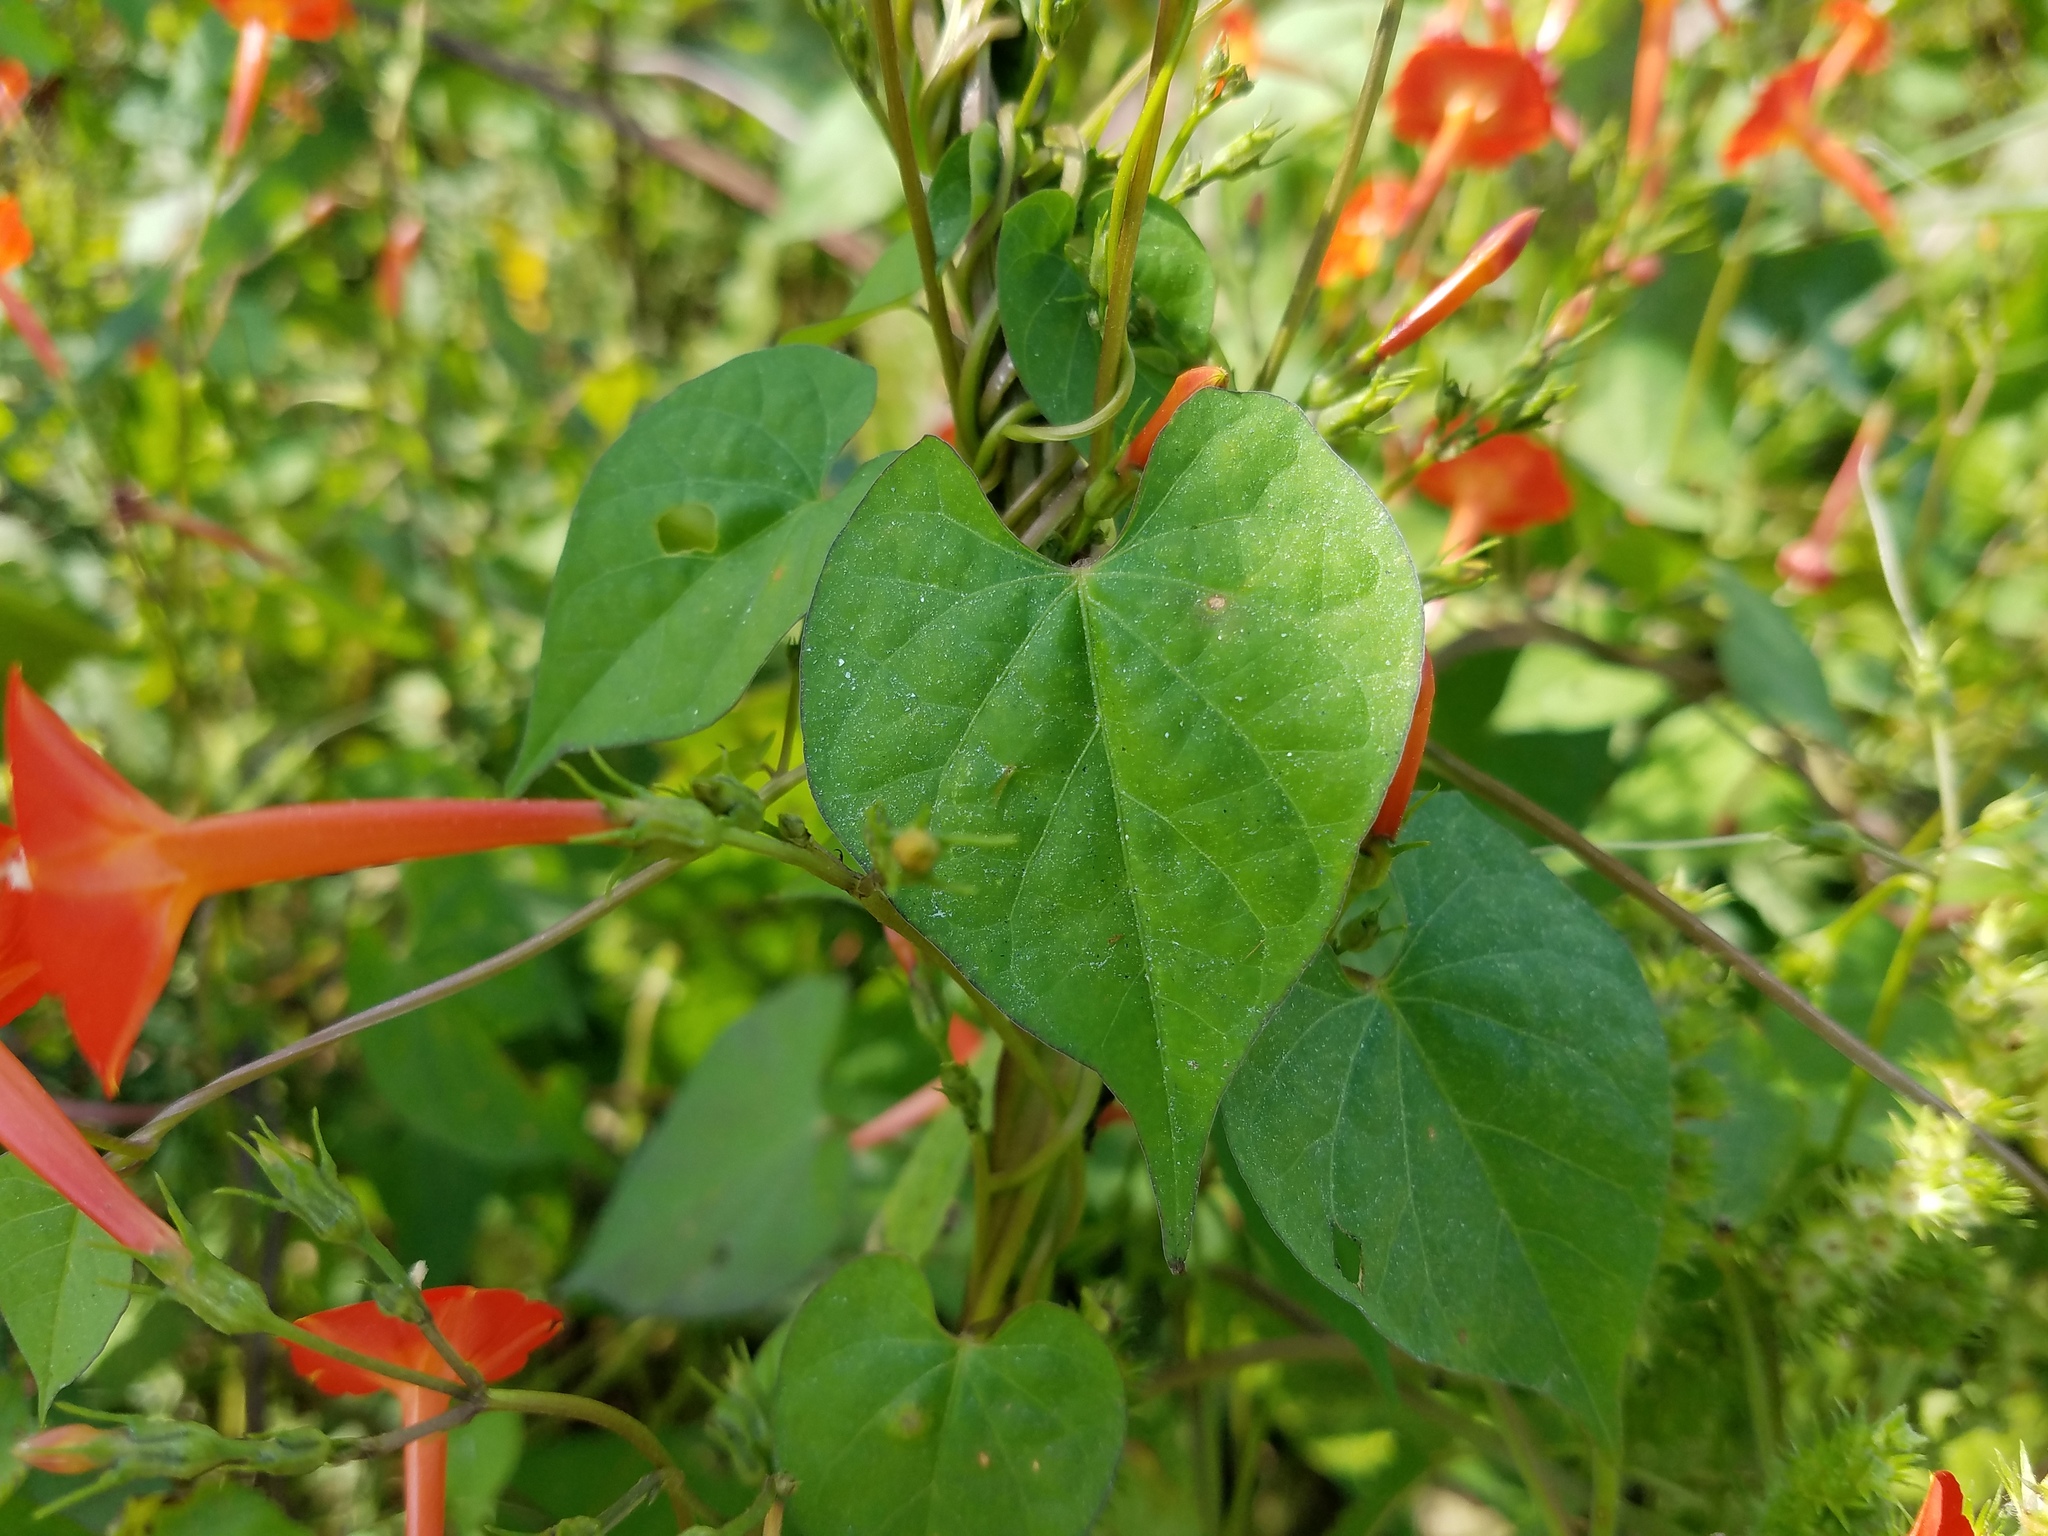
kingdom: Plantae
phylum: Tracheophyta
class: Magnoliopsida
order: Solanales
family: Convolvulaceae
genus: Ipomoea
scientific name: Ipomoea coccinea
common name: Red morning-glory
